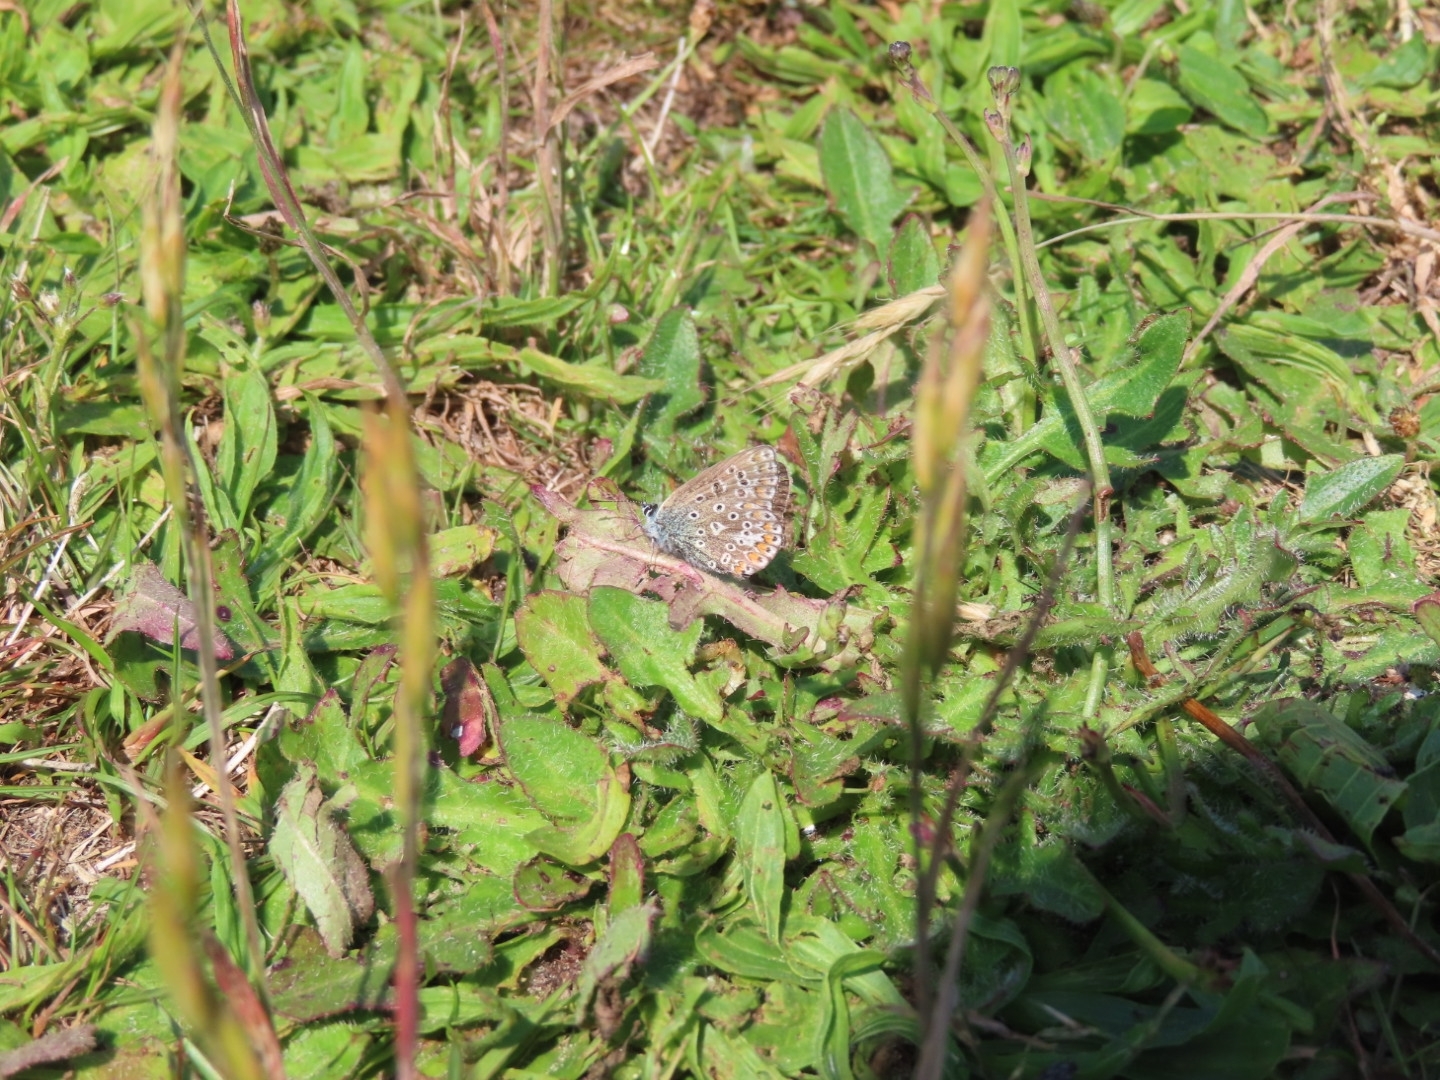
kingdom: Animalia
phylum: Arthropoda
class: Insecta
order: Lepidoptera
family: Lycaenidae
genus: Polyommatus
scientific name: Polyommatus icarus
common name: Common blue
